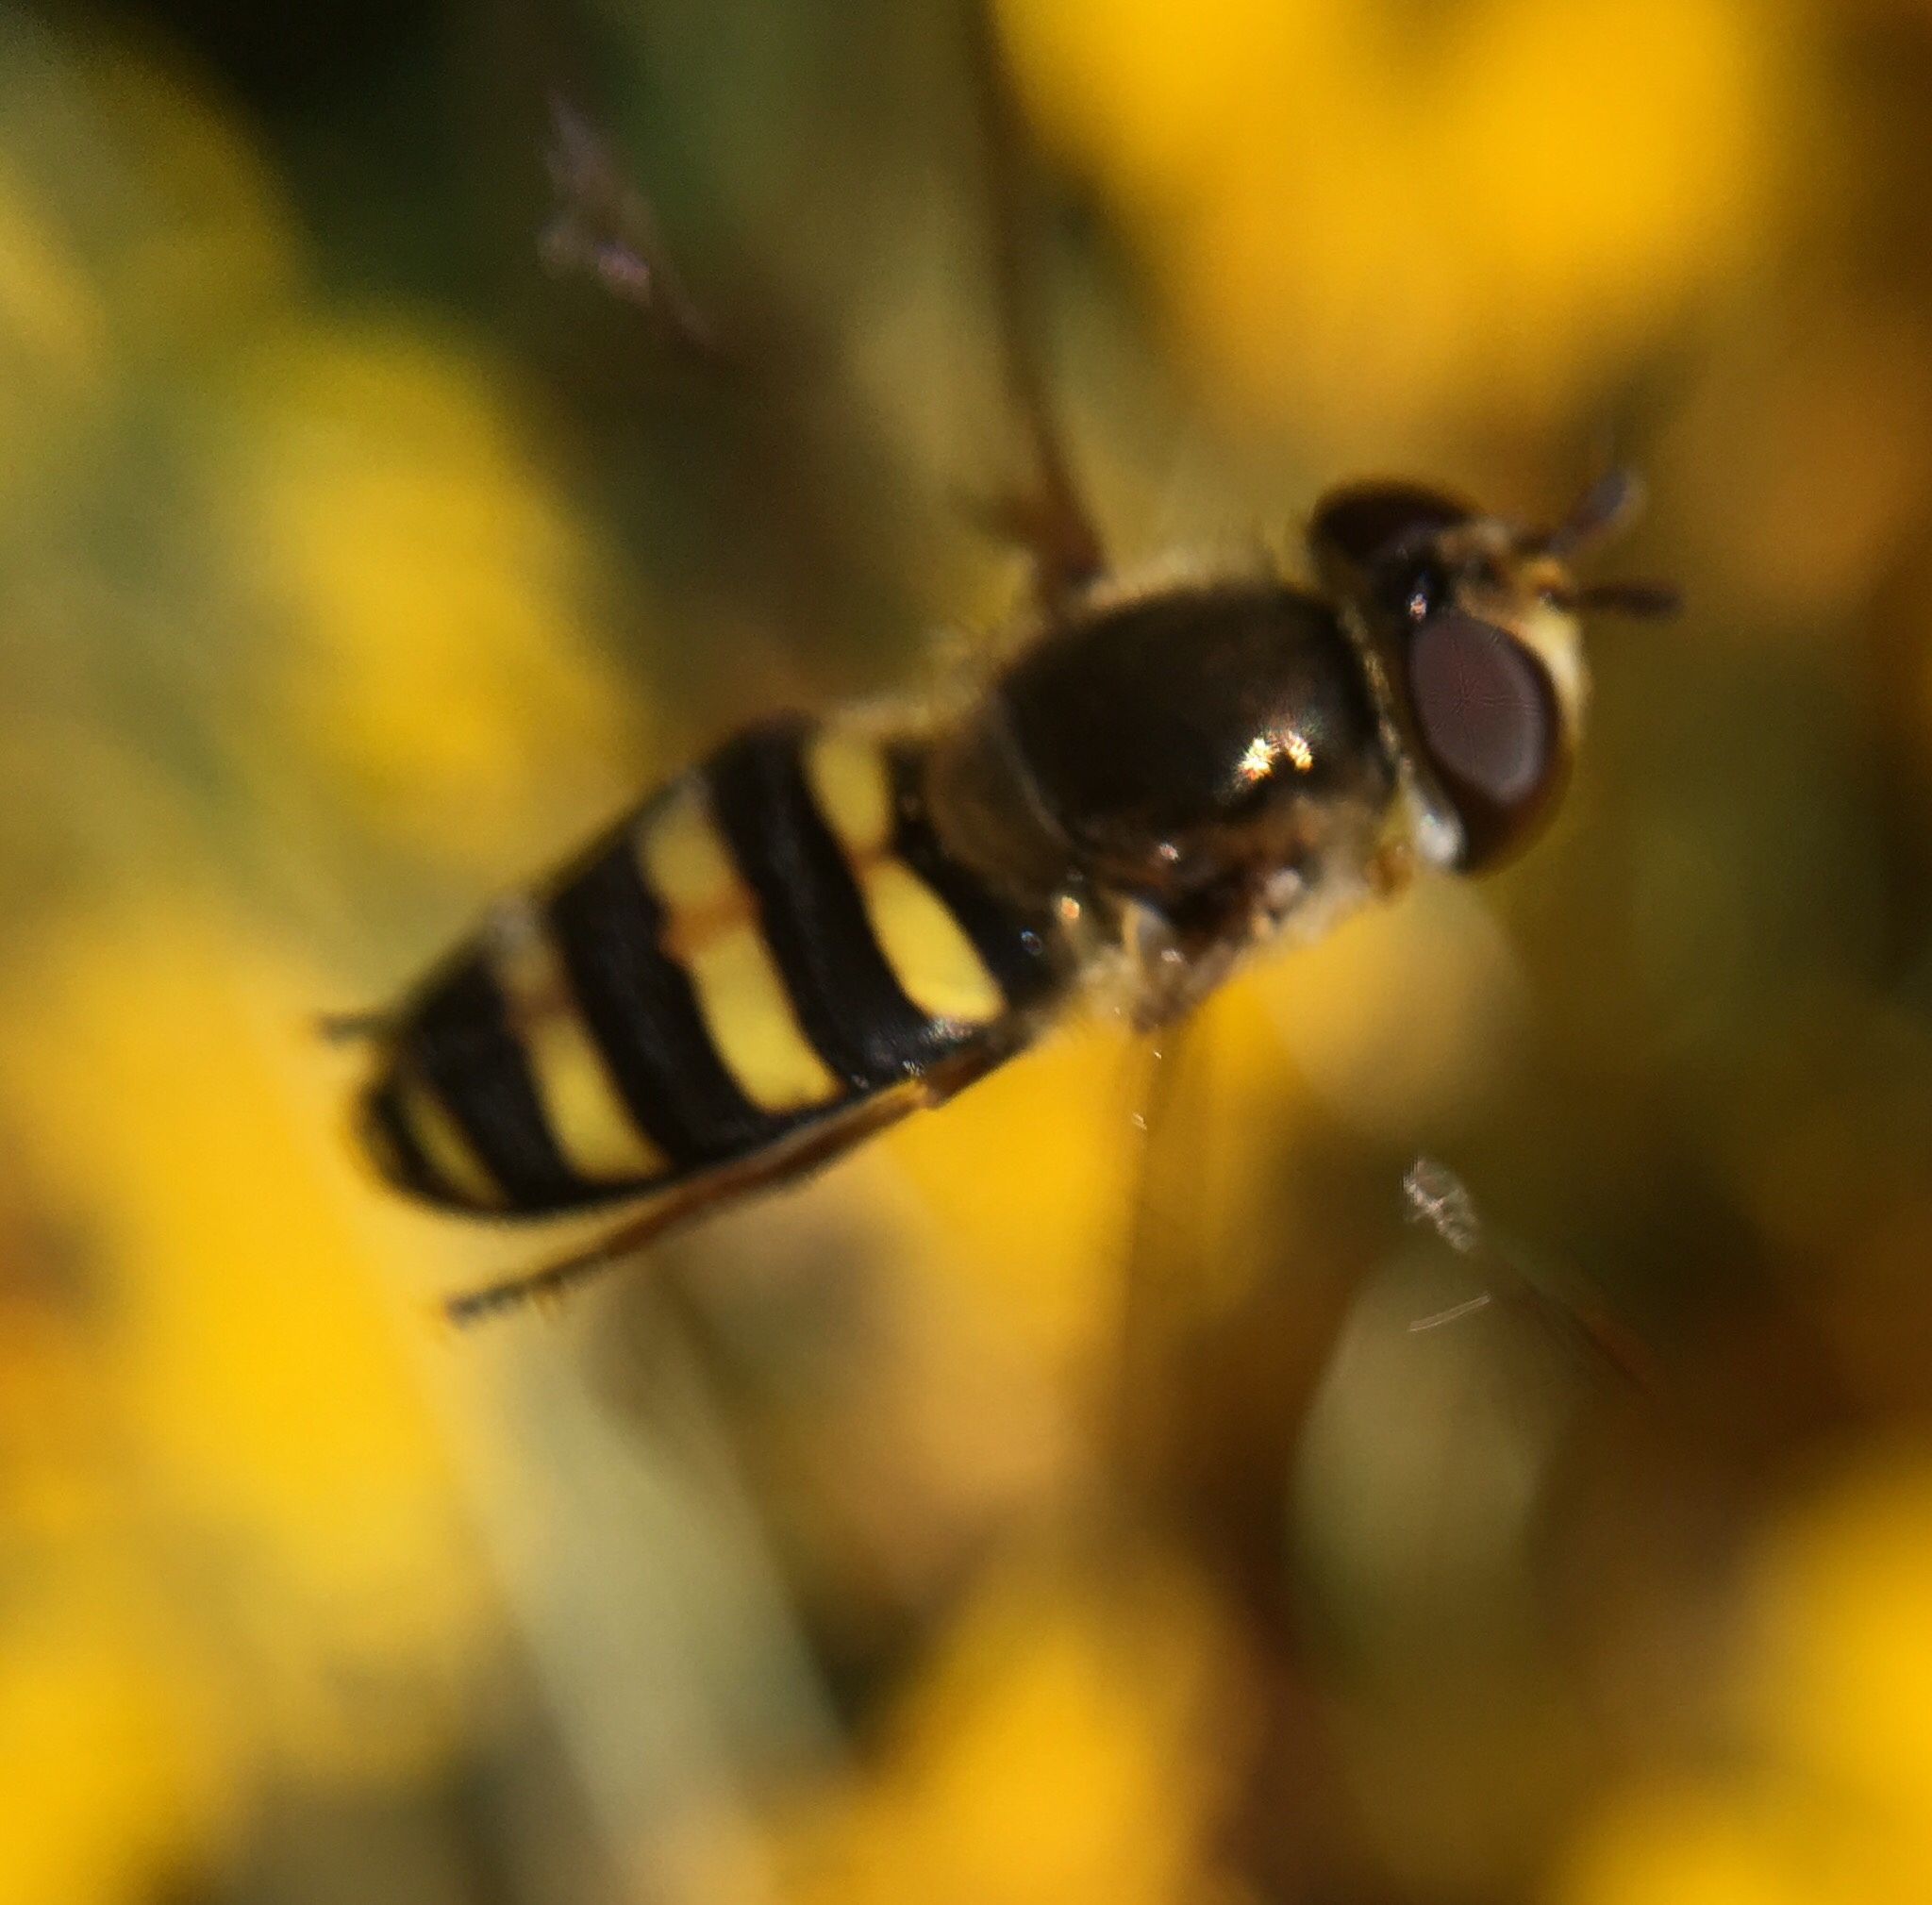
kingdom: Animalia
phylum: Arthropoda
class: Insecta
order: Diptera
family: Syrphidae
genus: Eupeodes
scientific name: Eupeodes
